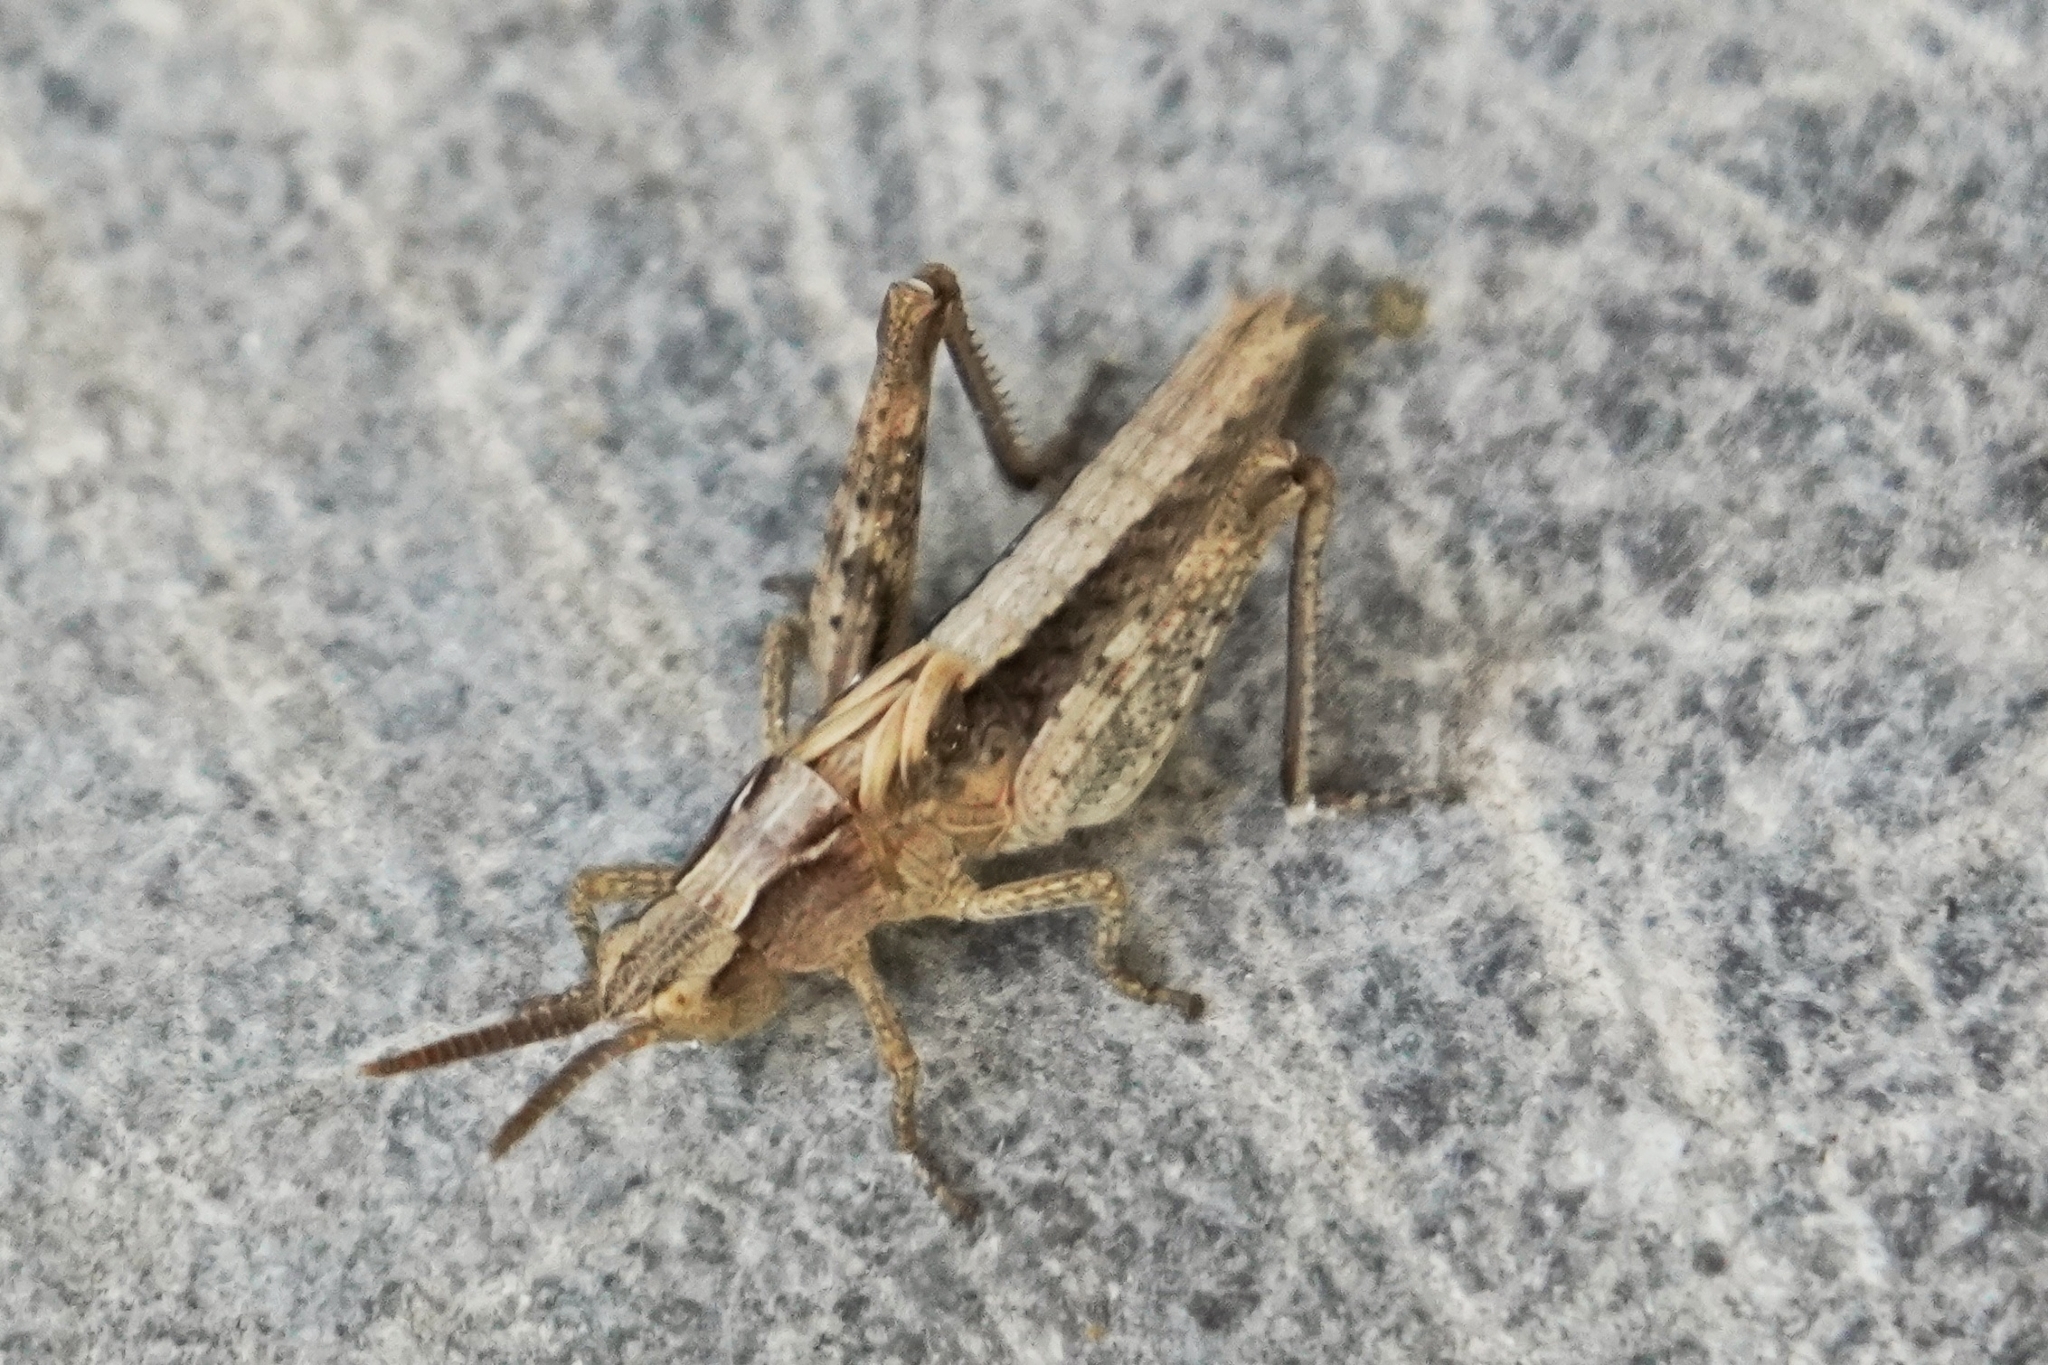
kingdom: Animalia
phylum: Arthropoda
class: Insecta
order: Orthoptera
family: Acrididae
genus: Chorthippus
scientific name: Chorthippus brunneus
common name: Field grasshopper
